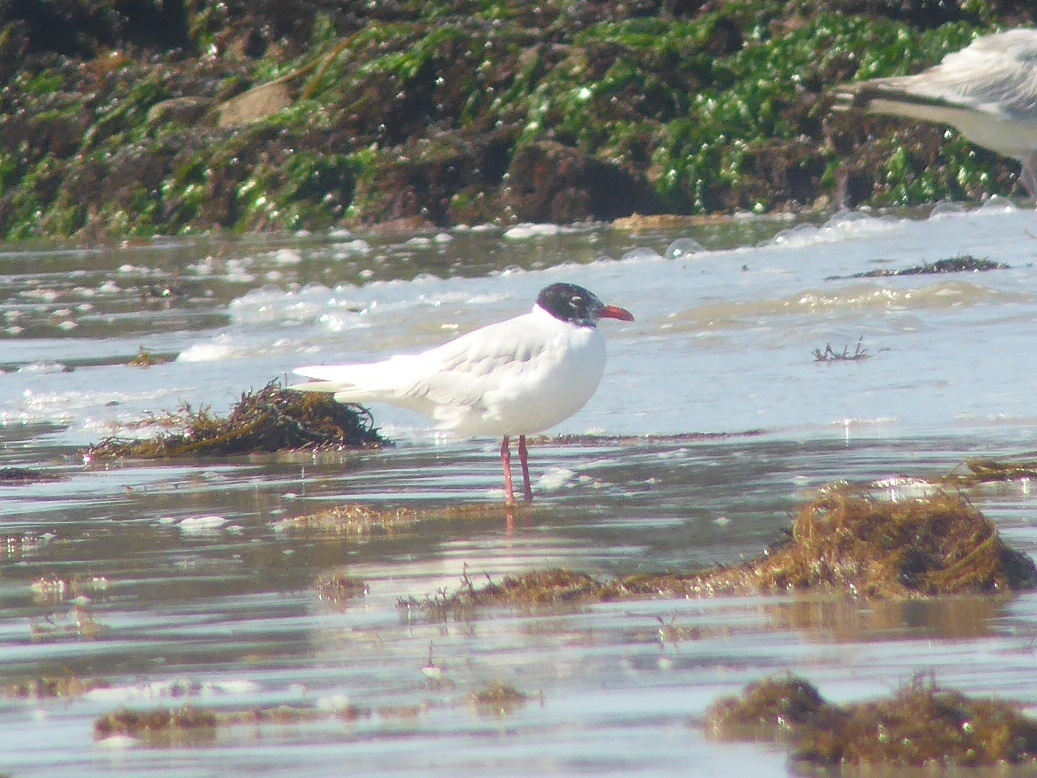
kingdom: Animalia
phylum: Chordata
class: Aves
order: Charadriiformes
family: Laridae
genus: Ichthyaetus
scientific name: Ichthyaetus melanocephalus
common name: Mediterranean gull
